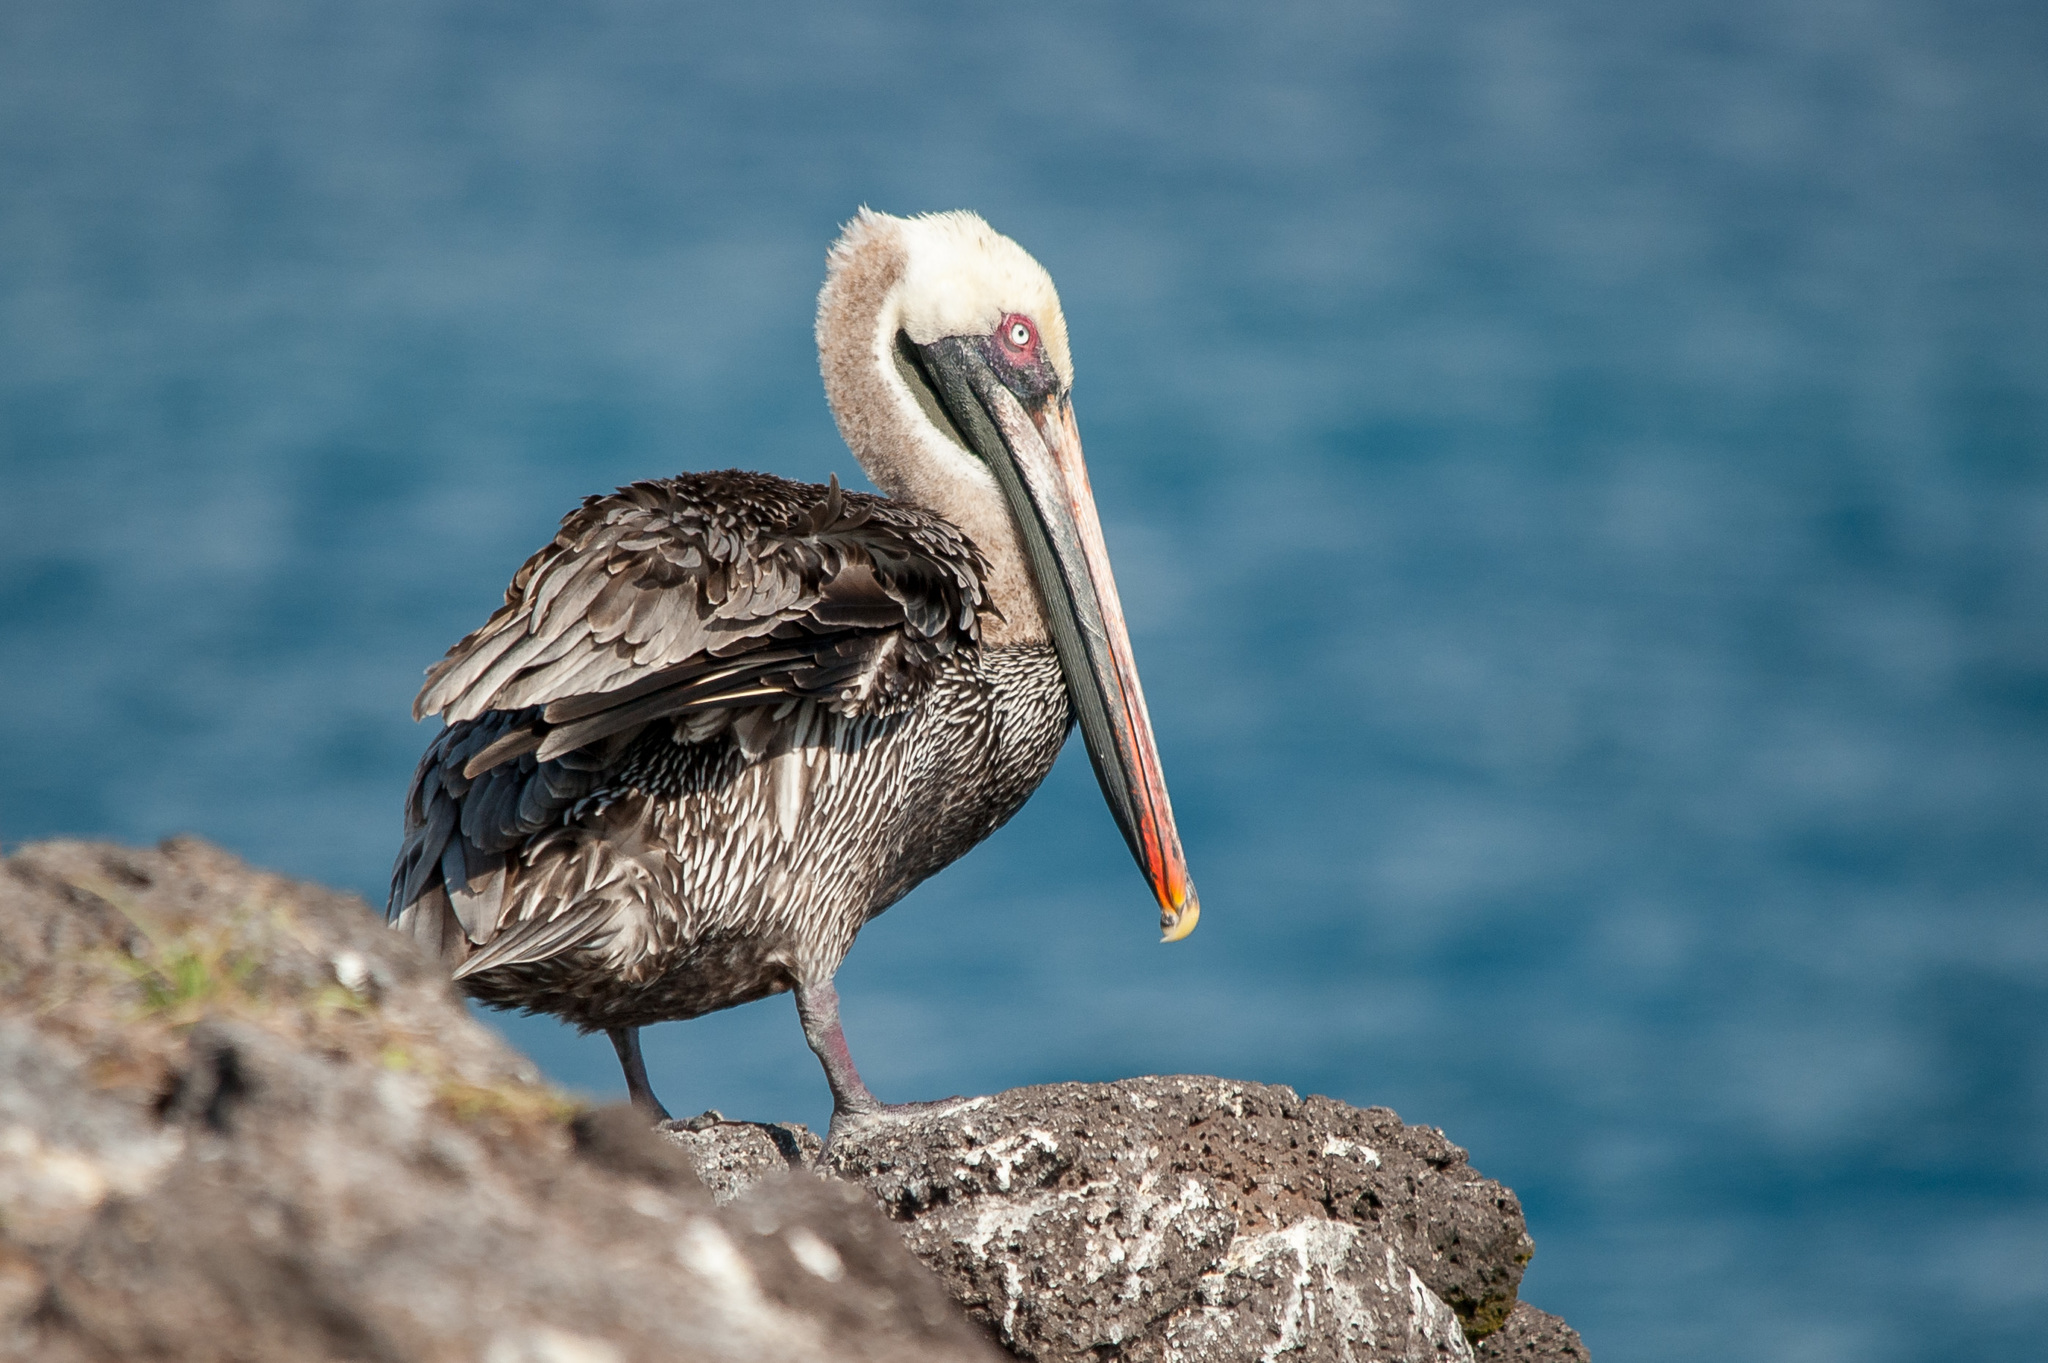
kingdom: Animalia
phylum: Chordata
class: Aves
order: Pelecaniformes
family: Pelecanidae
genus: Pelecanus
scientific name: Pelecanus occidentalis
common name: Brown pelican
